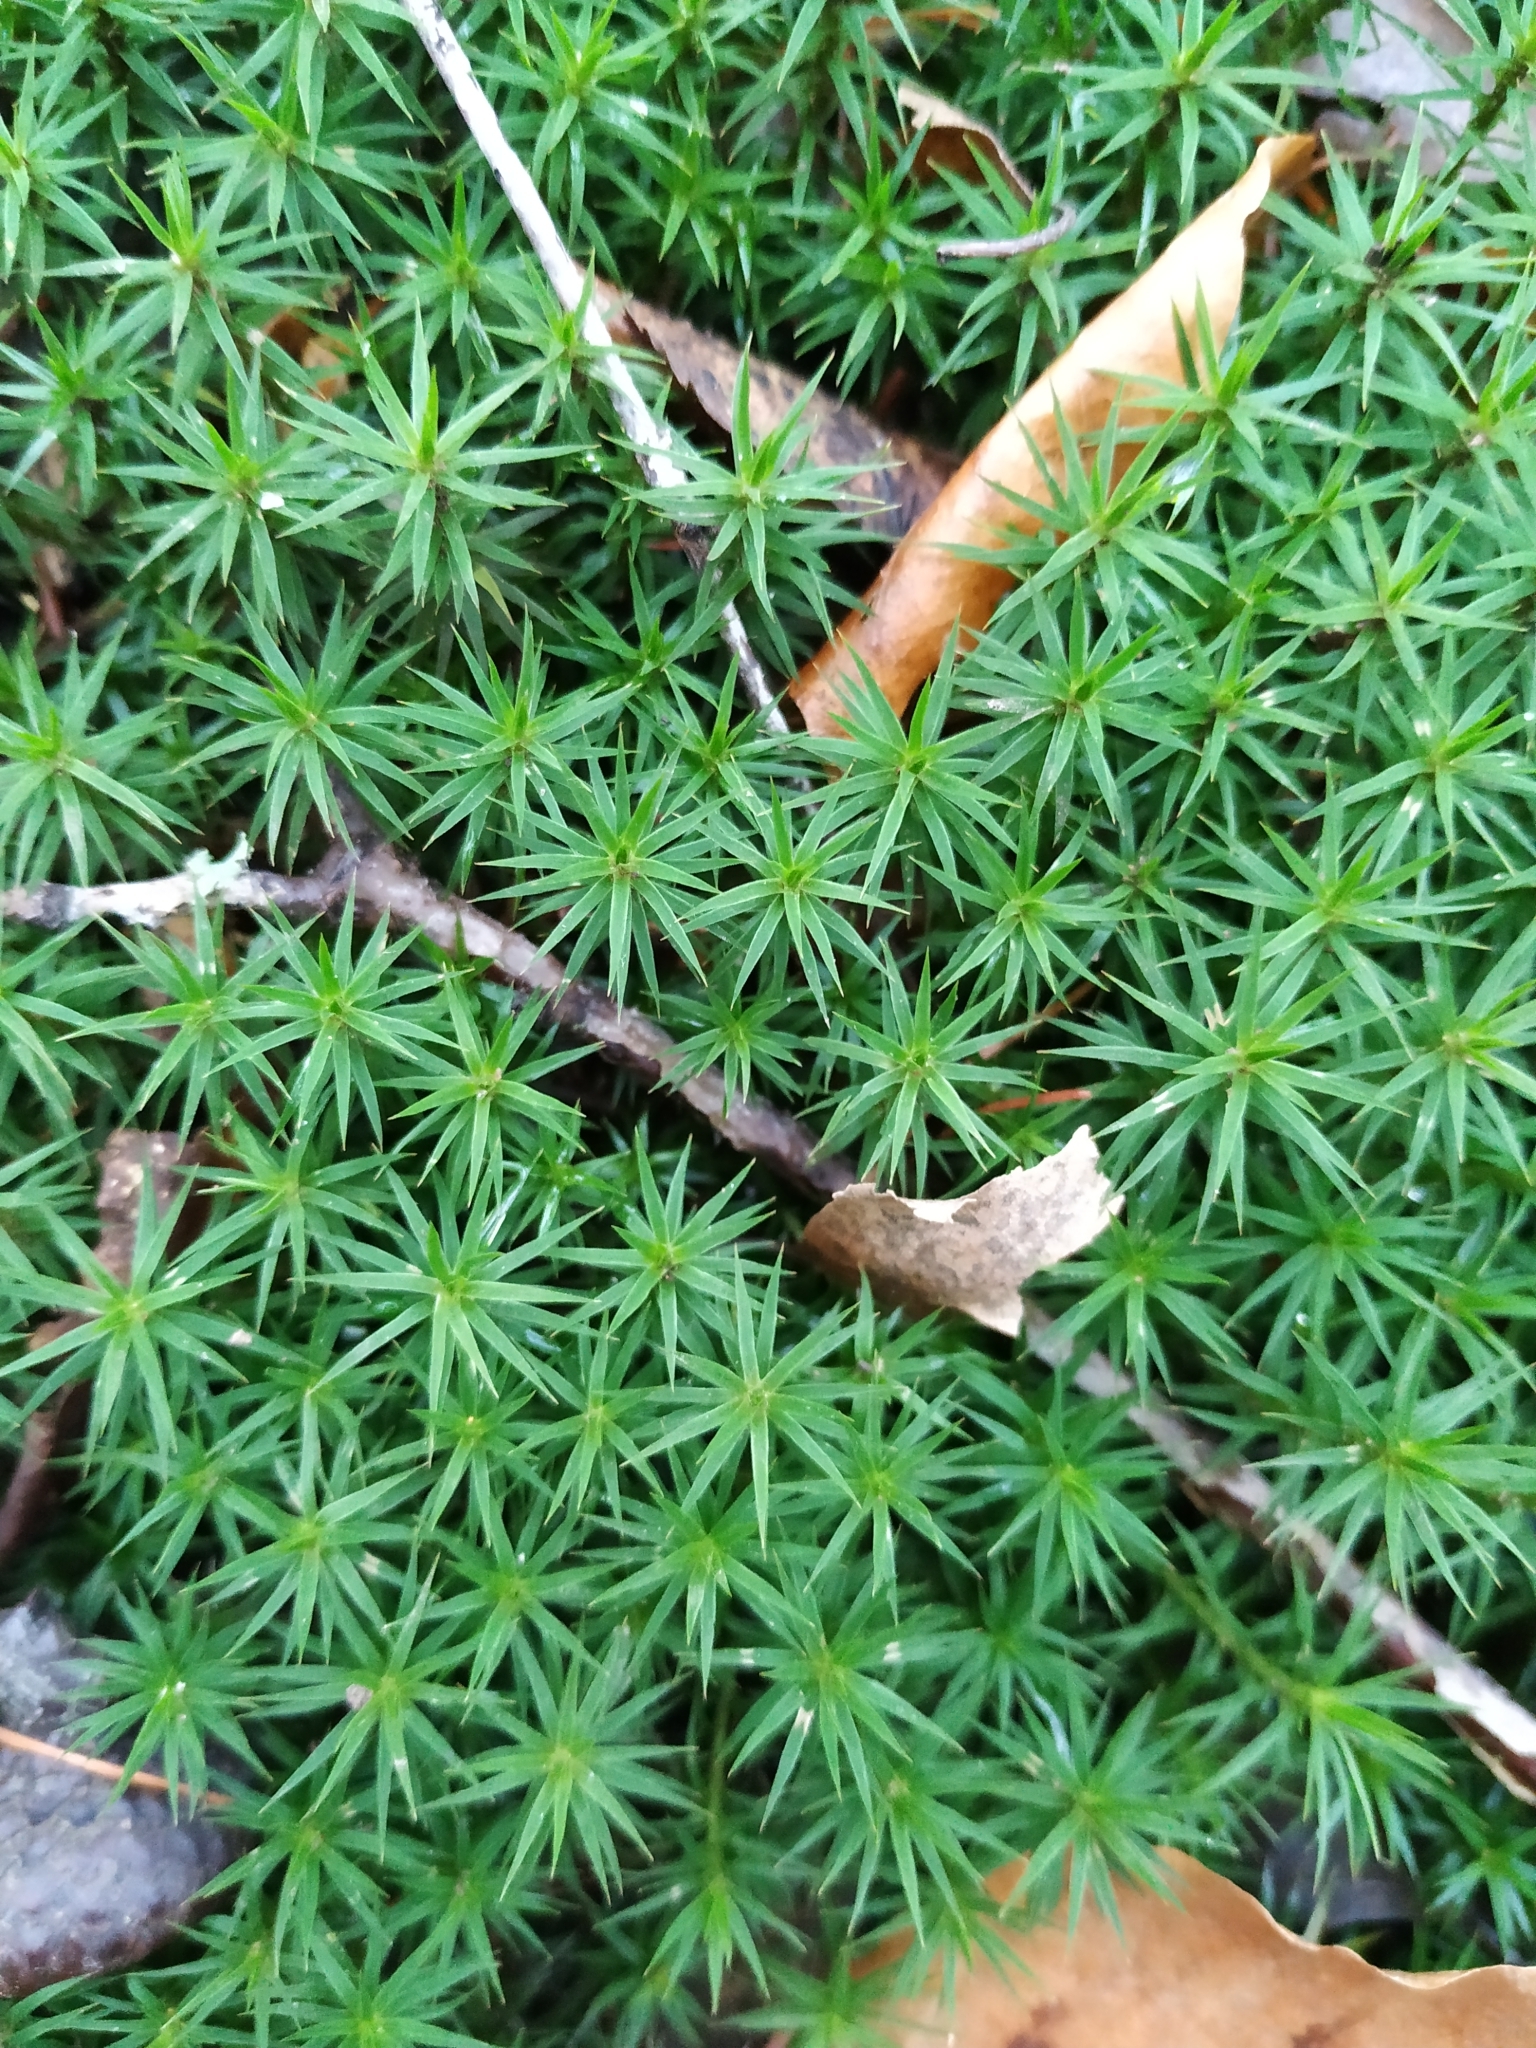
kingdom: Plantae
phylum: Bryophyta
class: Polytrichopsida
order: Polytrichales
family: Polytrichaceae
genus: Polytrichum
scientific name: Polytrichum formosum
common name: Bank haircap moss
